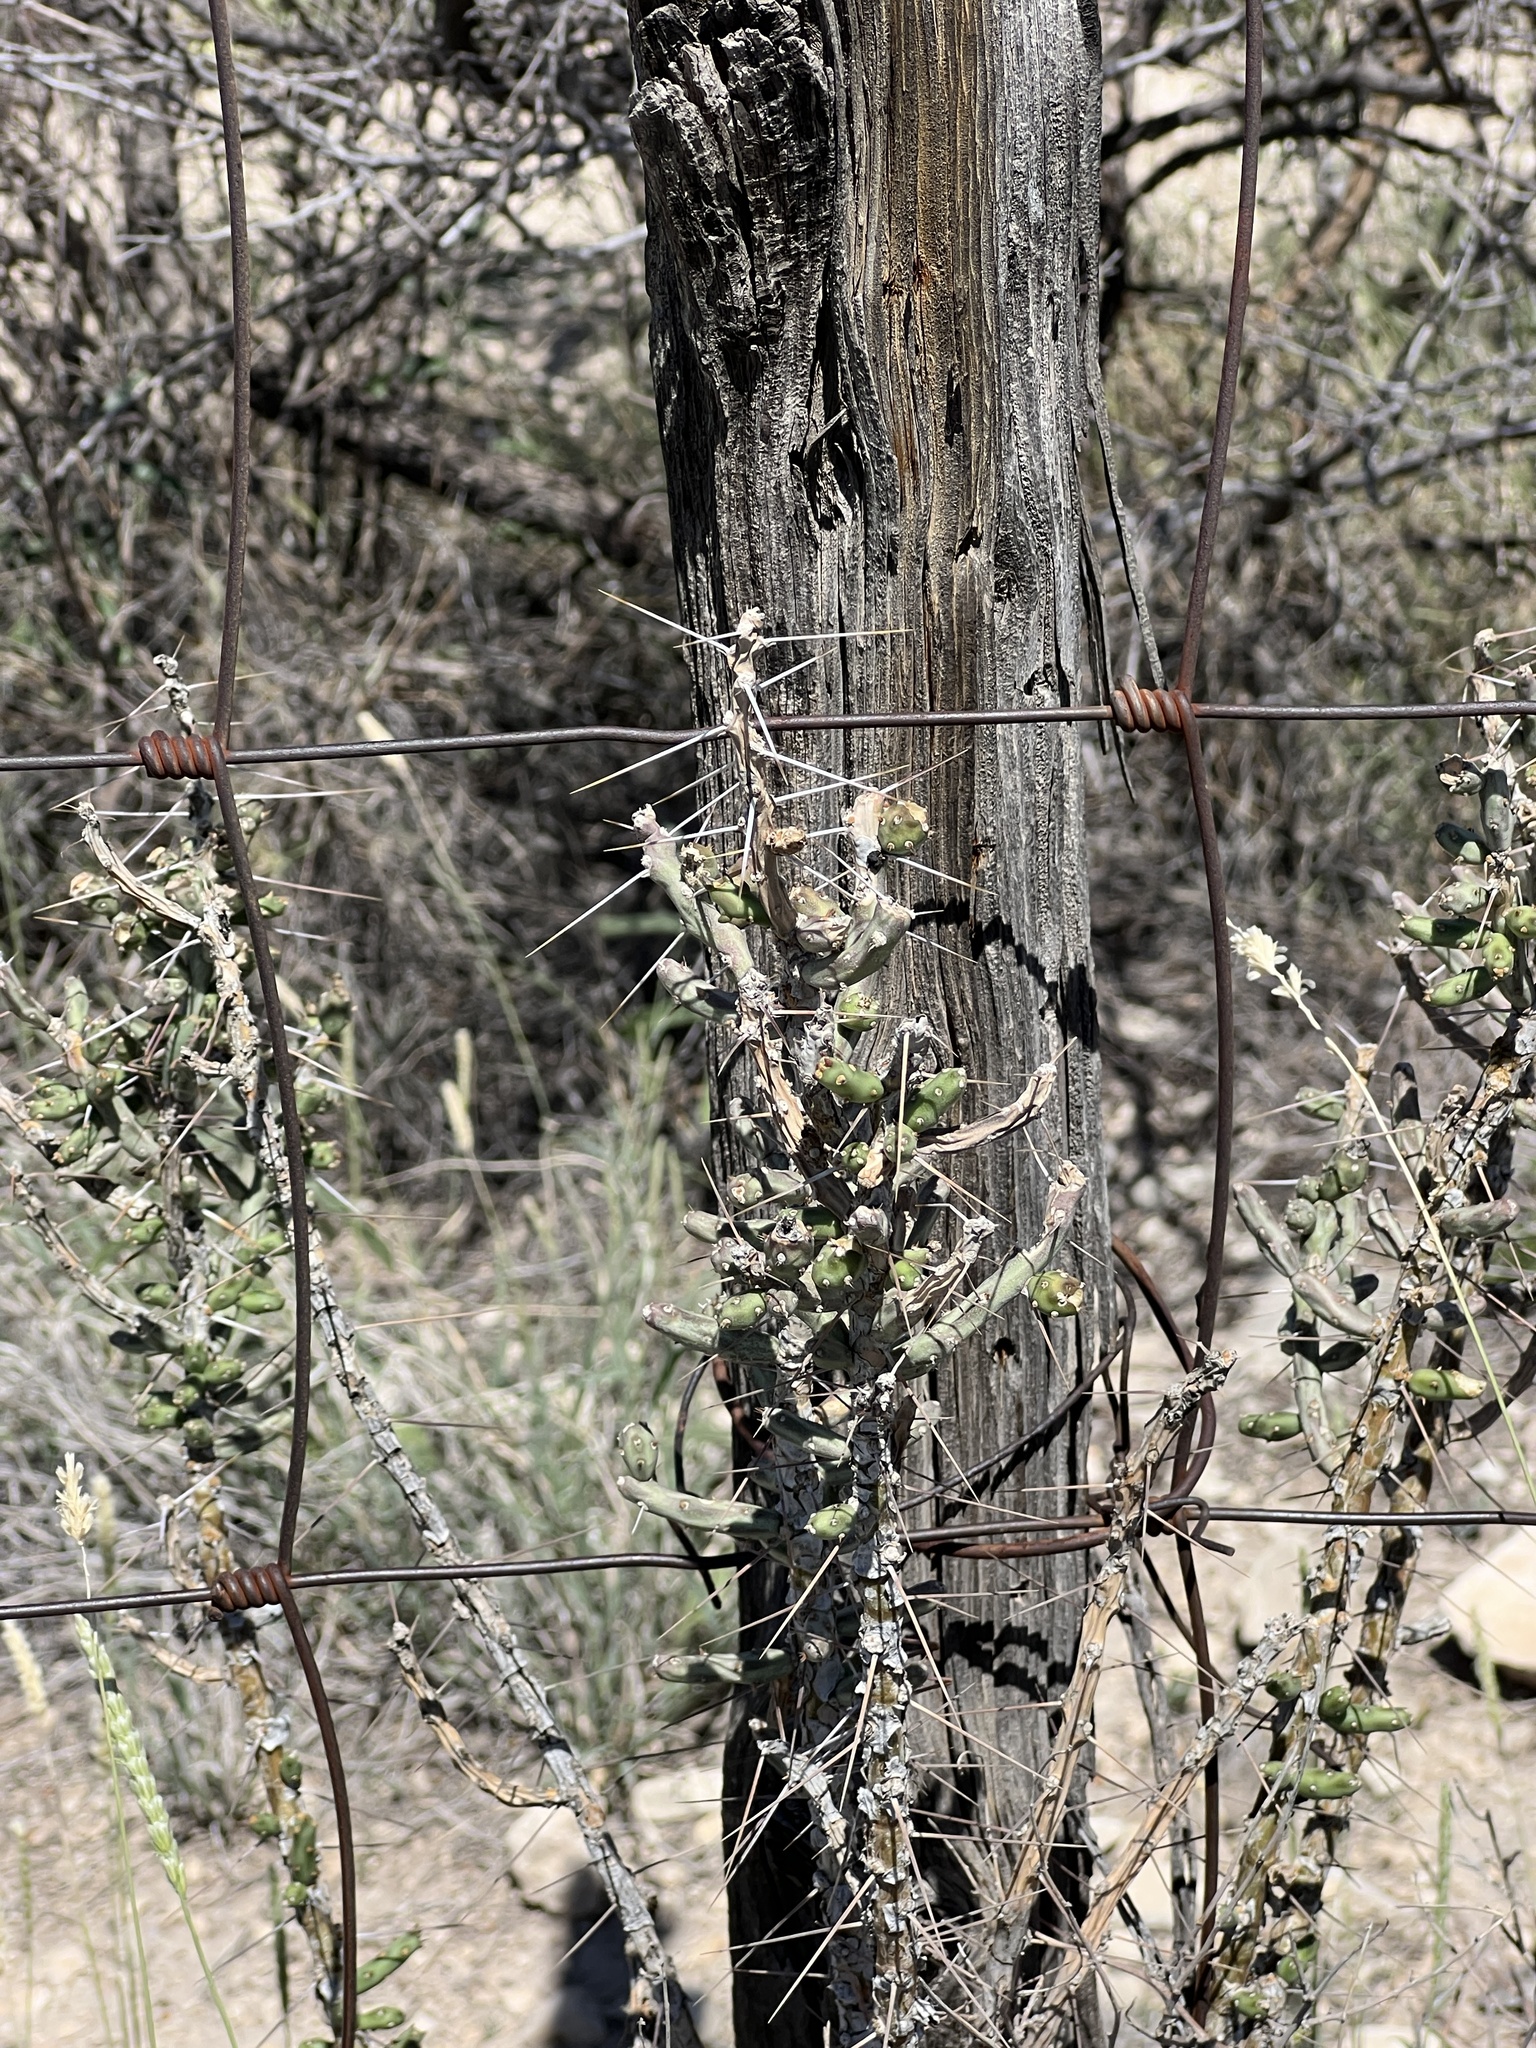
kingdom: Plantae
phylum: Tracheophyta
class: Magnoliopsida
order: Caryophyllales
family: Cactaceae
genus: Cylindropuntia
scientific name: Cylindropuntia leptocaulis
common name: Christmas cactus
